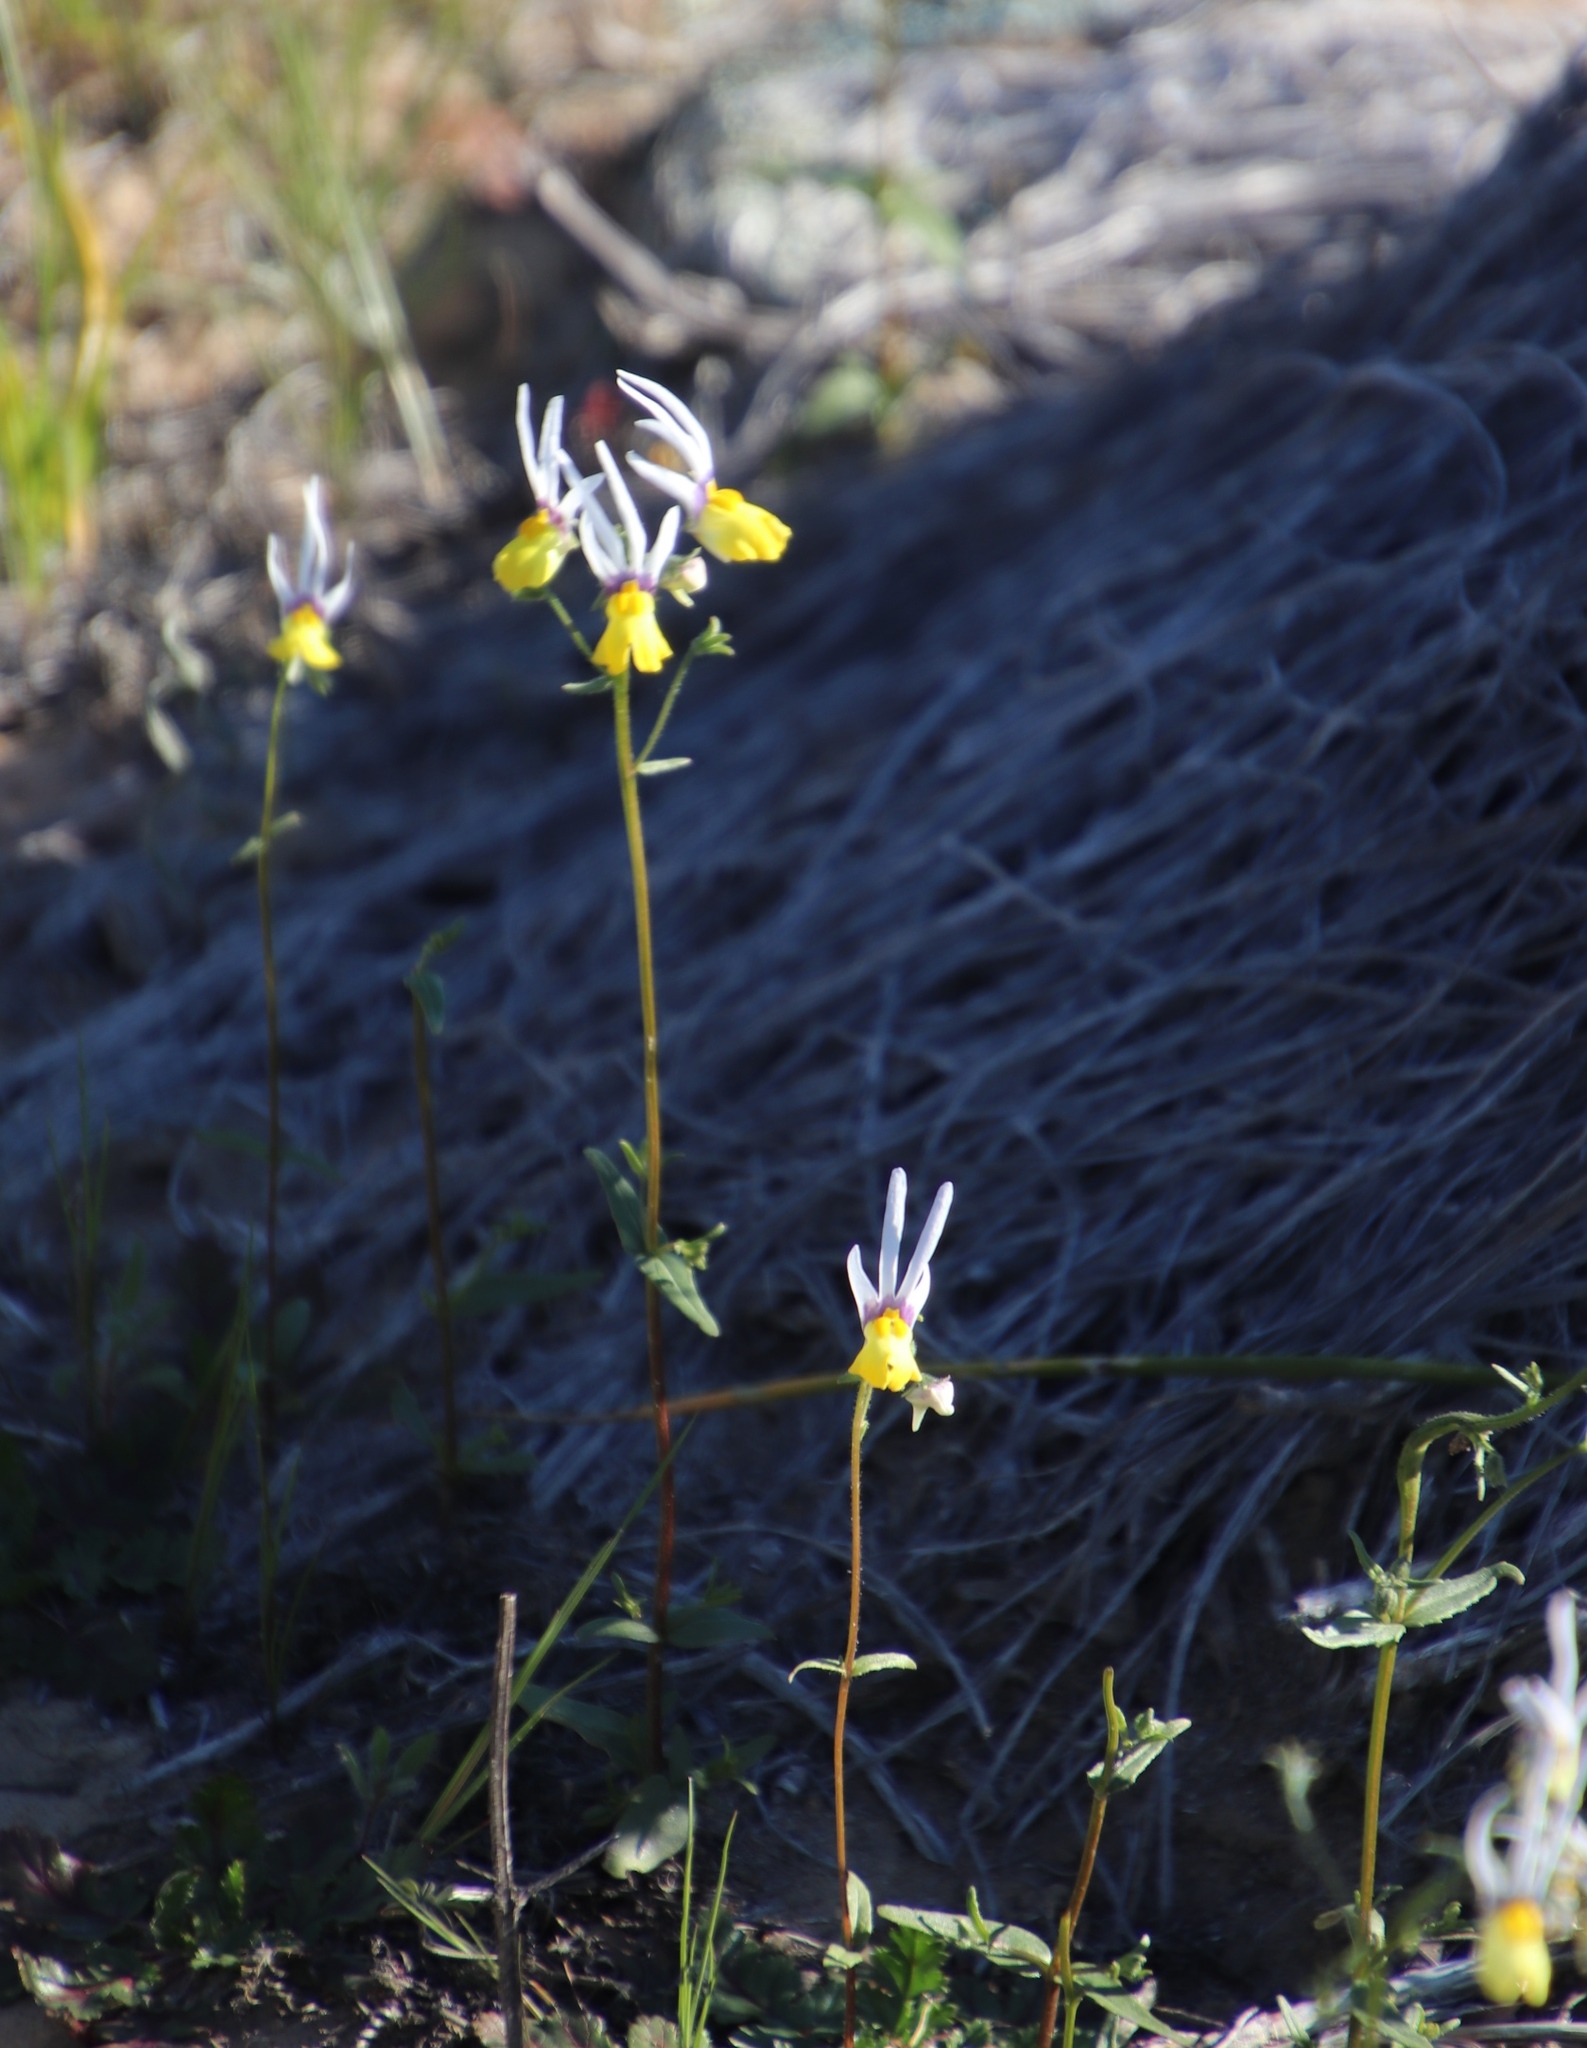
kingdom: Plantae
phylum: Tracheophyta
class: Magnoliopsida
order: Lamiales
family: Scrophulariaceae
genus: Nemesia
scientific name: Nemesia cheiranthus
